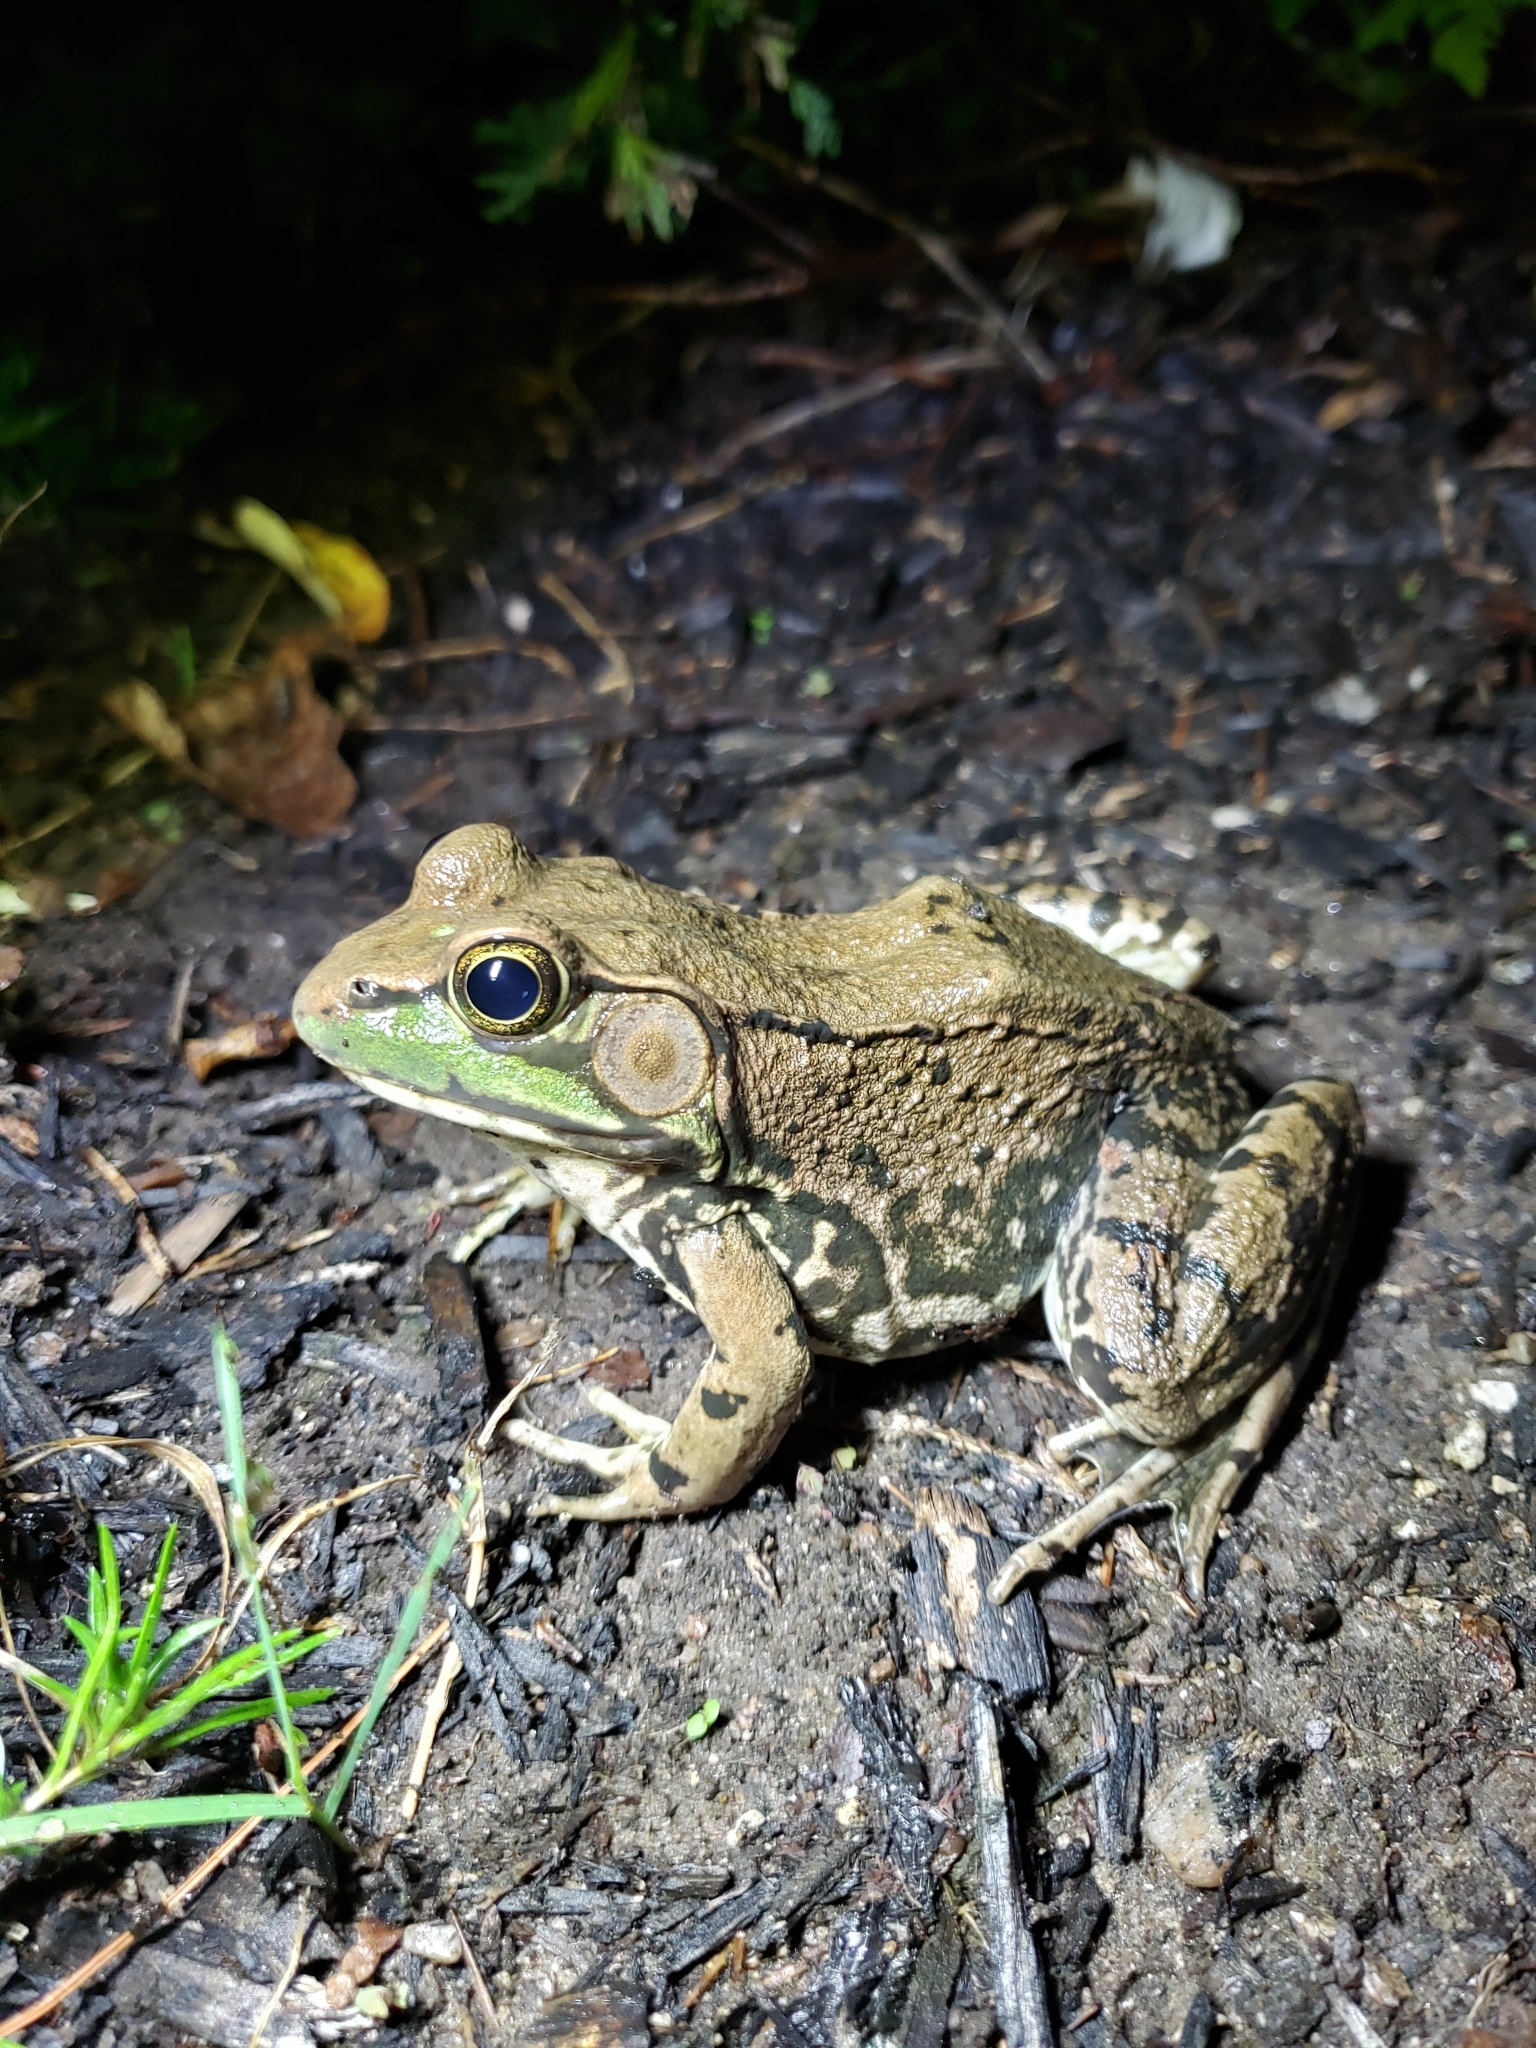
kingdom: Animalia
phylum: Chordata
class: Amphibia
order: Anura
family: Ranidae
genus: Lithobates
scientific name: Lithobates clamitans
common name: Green frog
